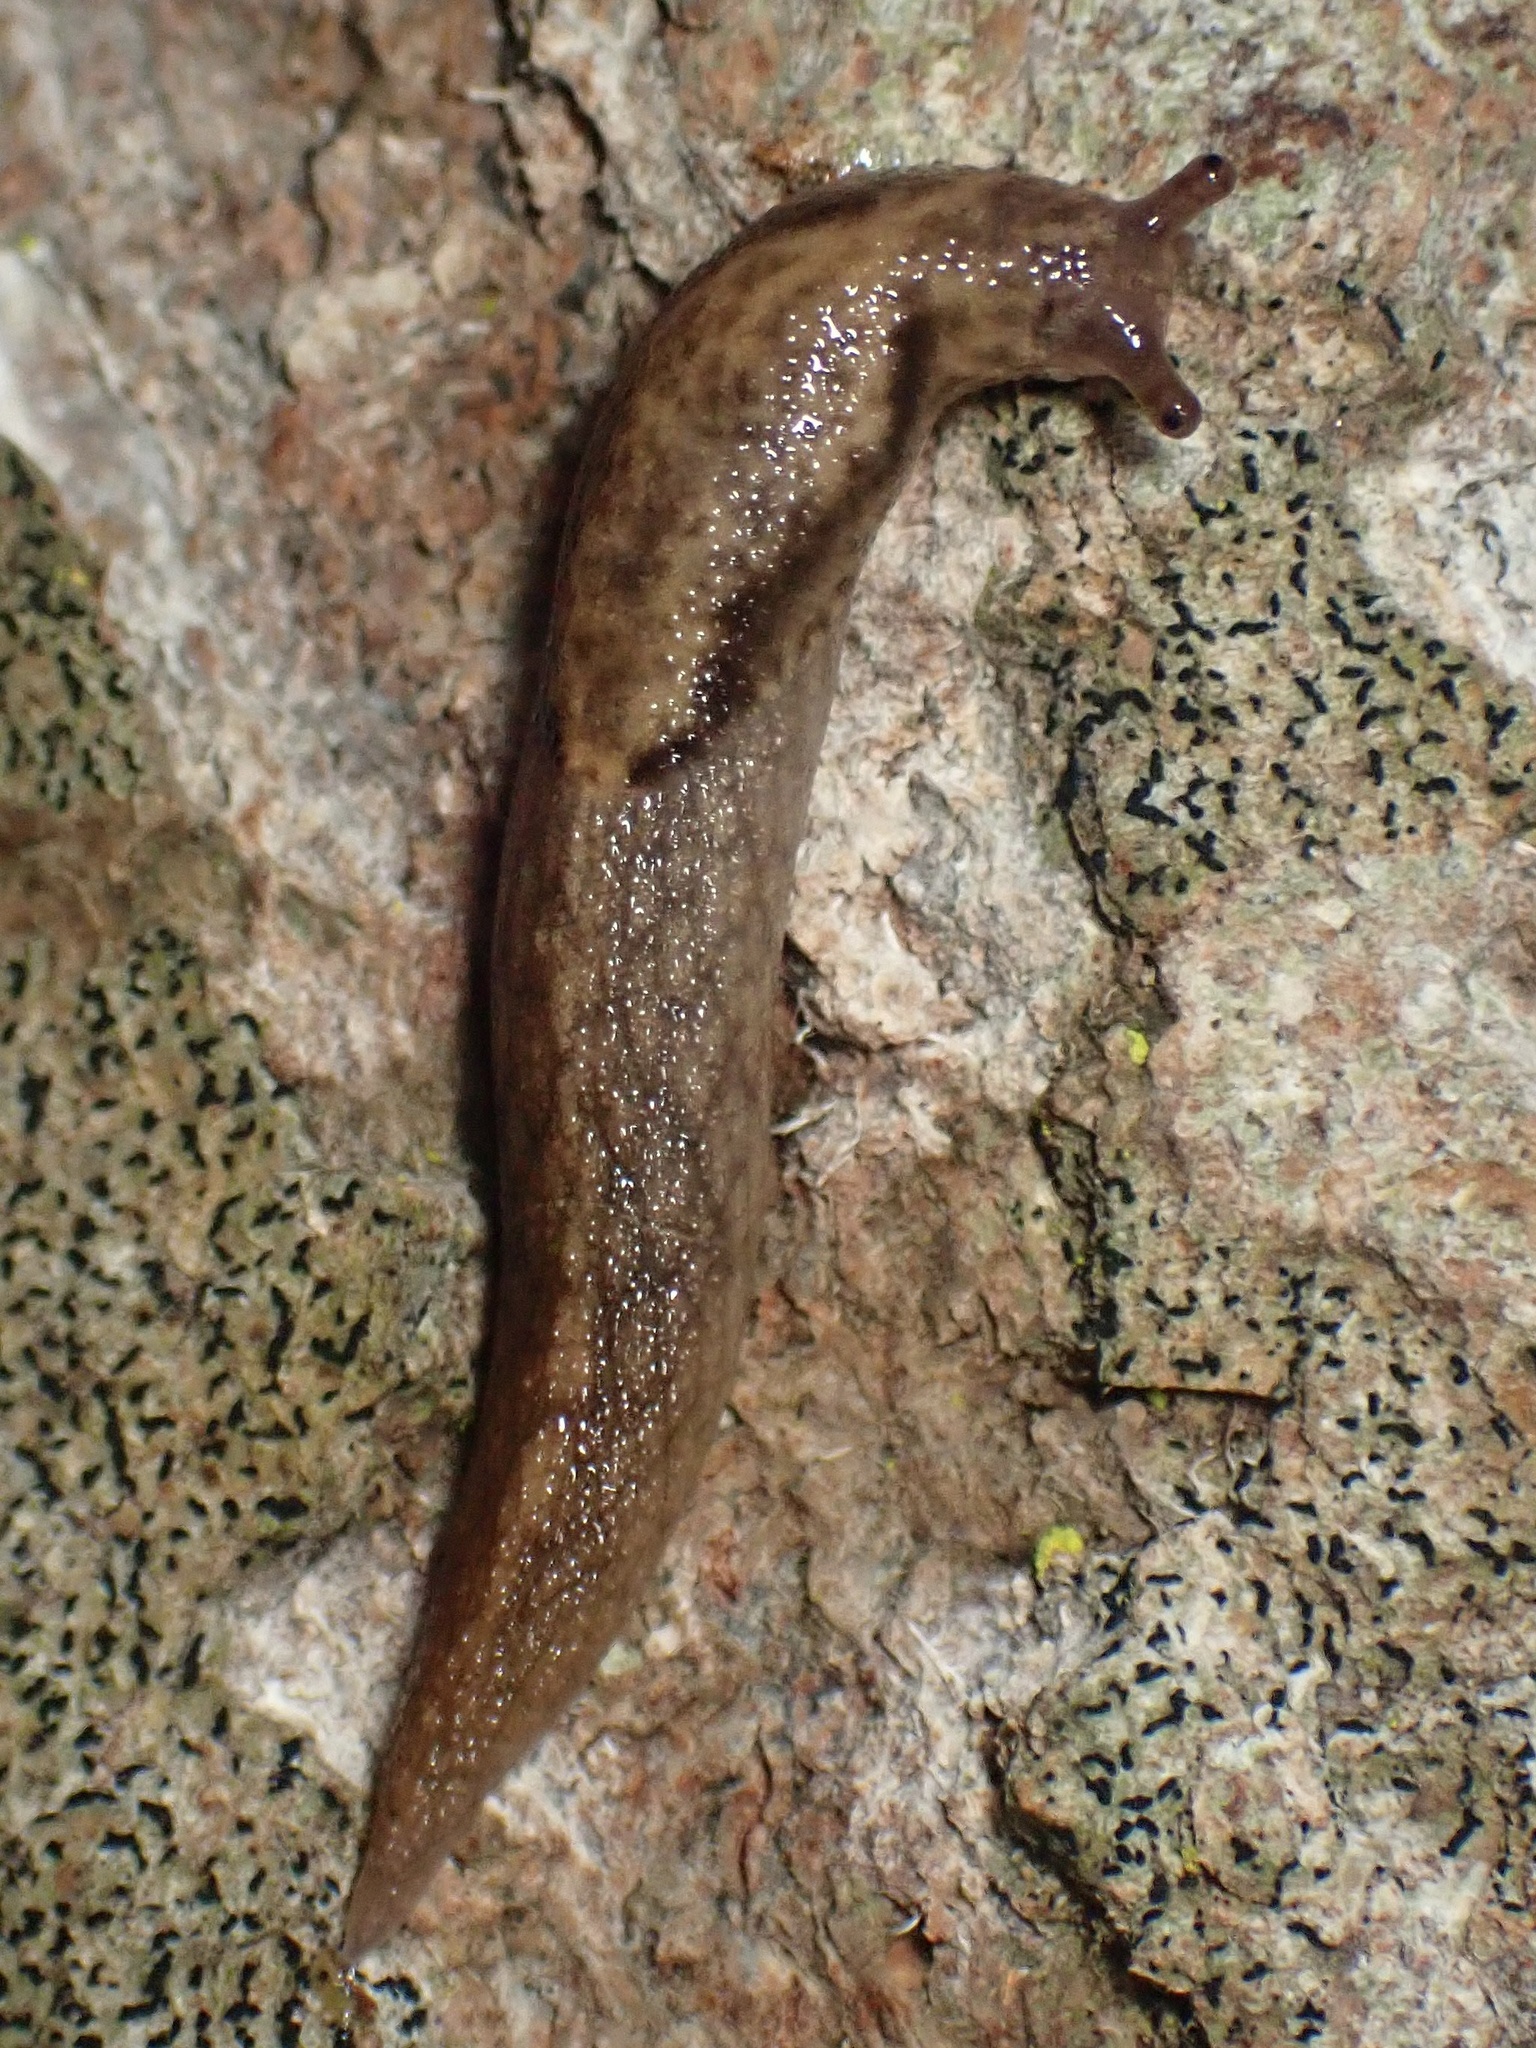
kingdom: Animalia
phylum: Mollusca
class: Gastropoda
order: Stylommatophora
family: Ariolimacidae
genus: Prophysaon
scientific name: Prophysaon andersonii
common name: Reticulate taildropper
